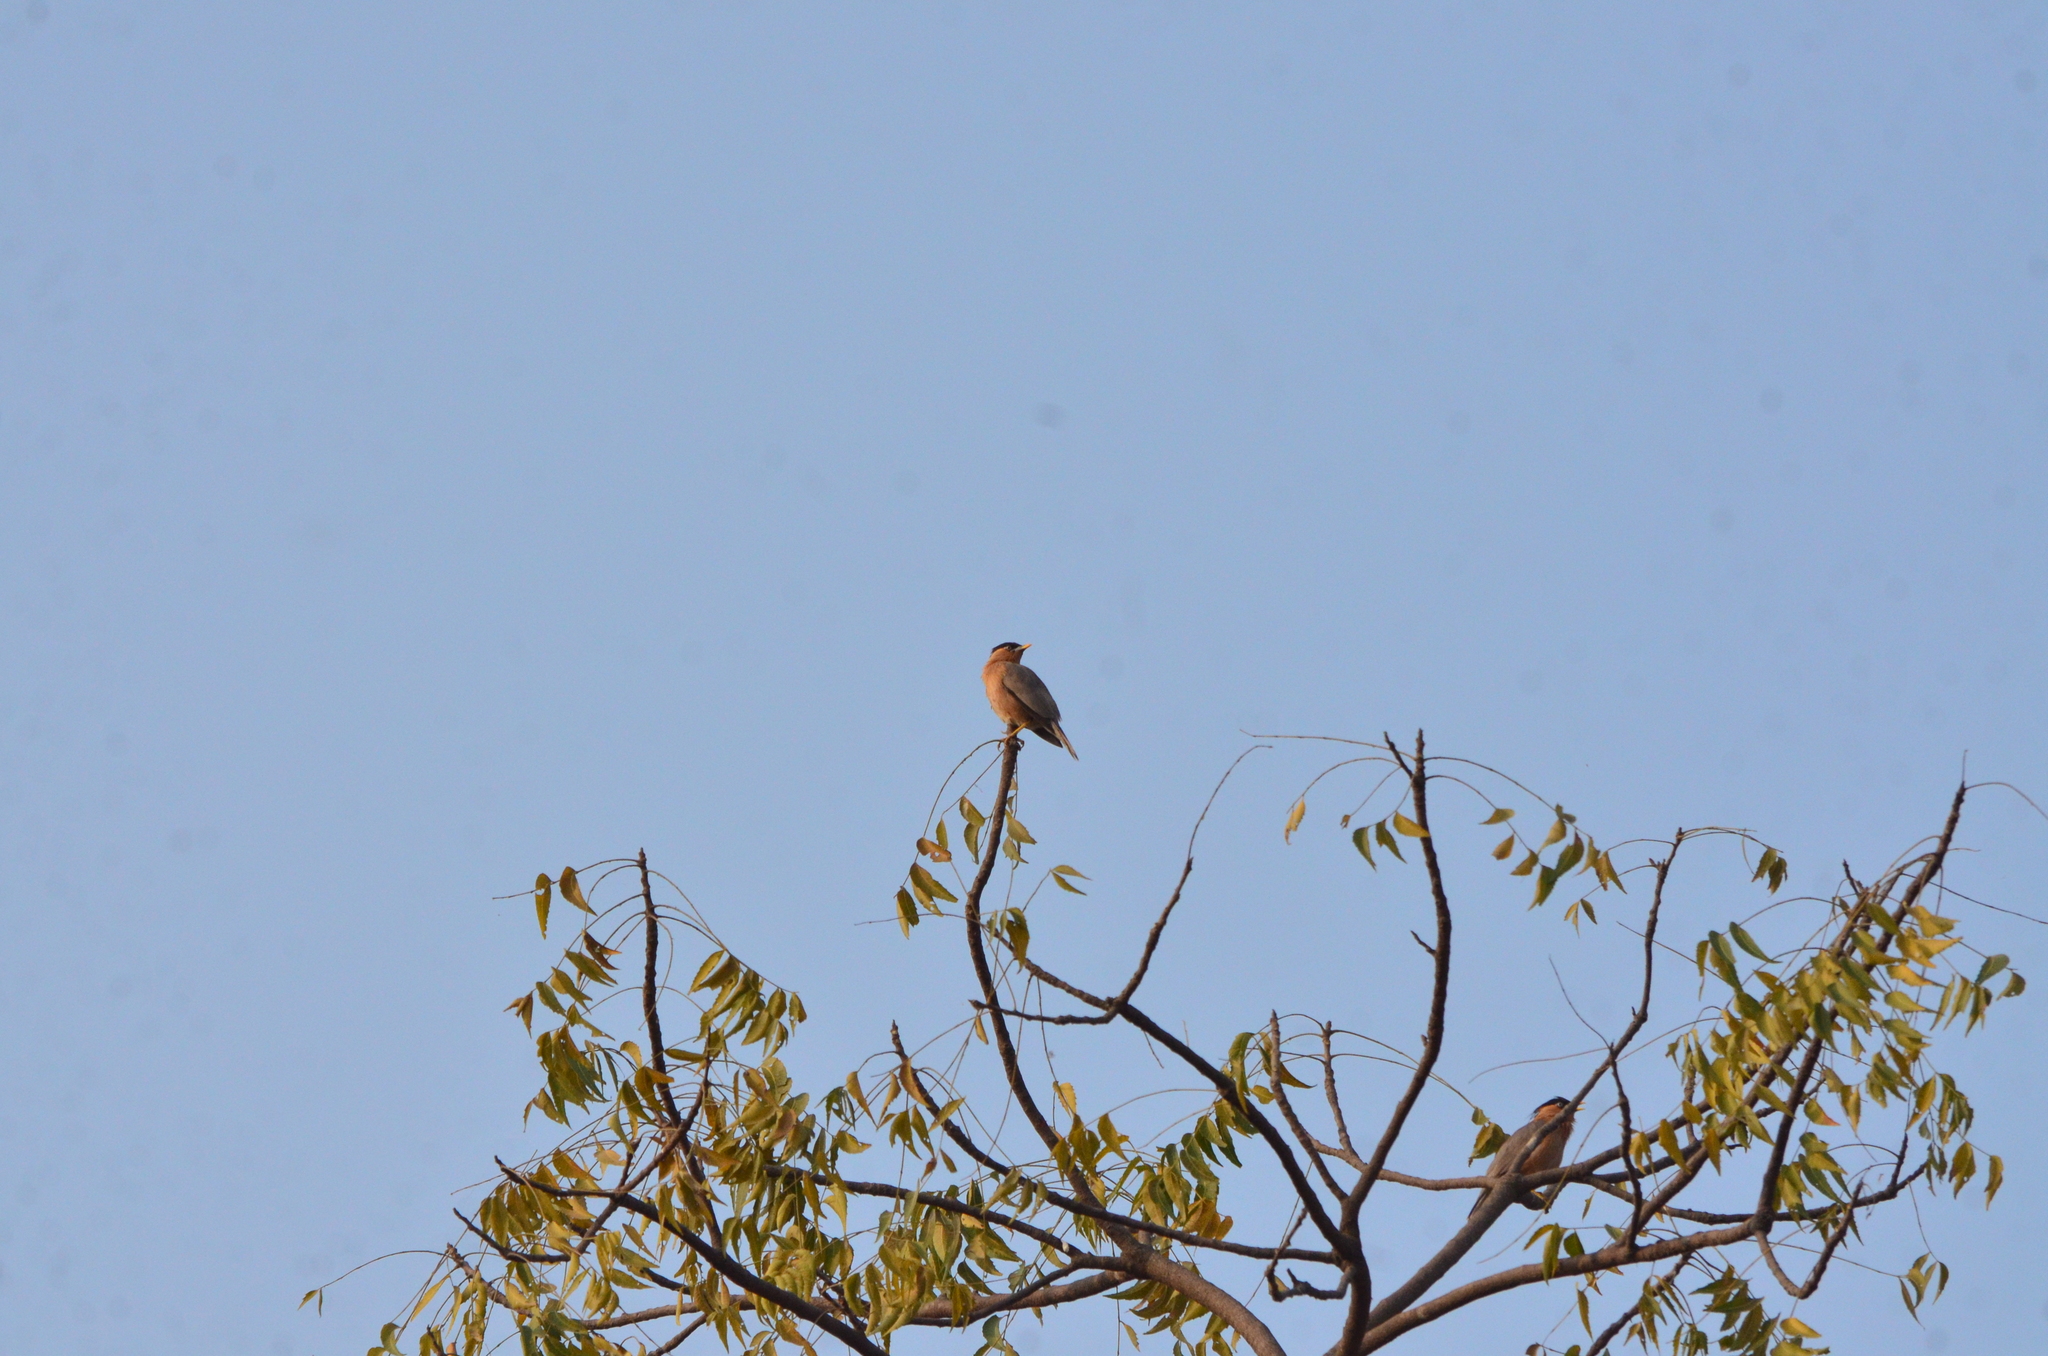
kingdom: Animalia
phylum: Chordata
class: Aves
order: Passeriformes
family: Sturnidae
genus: Sturnia
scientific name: Sturnia pagodarum
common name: Brahminy starling
